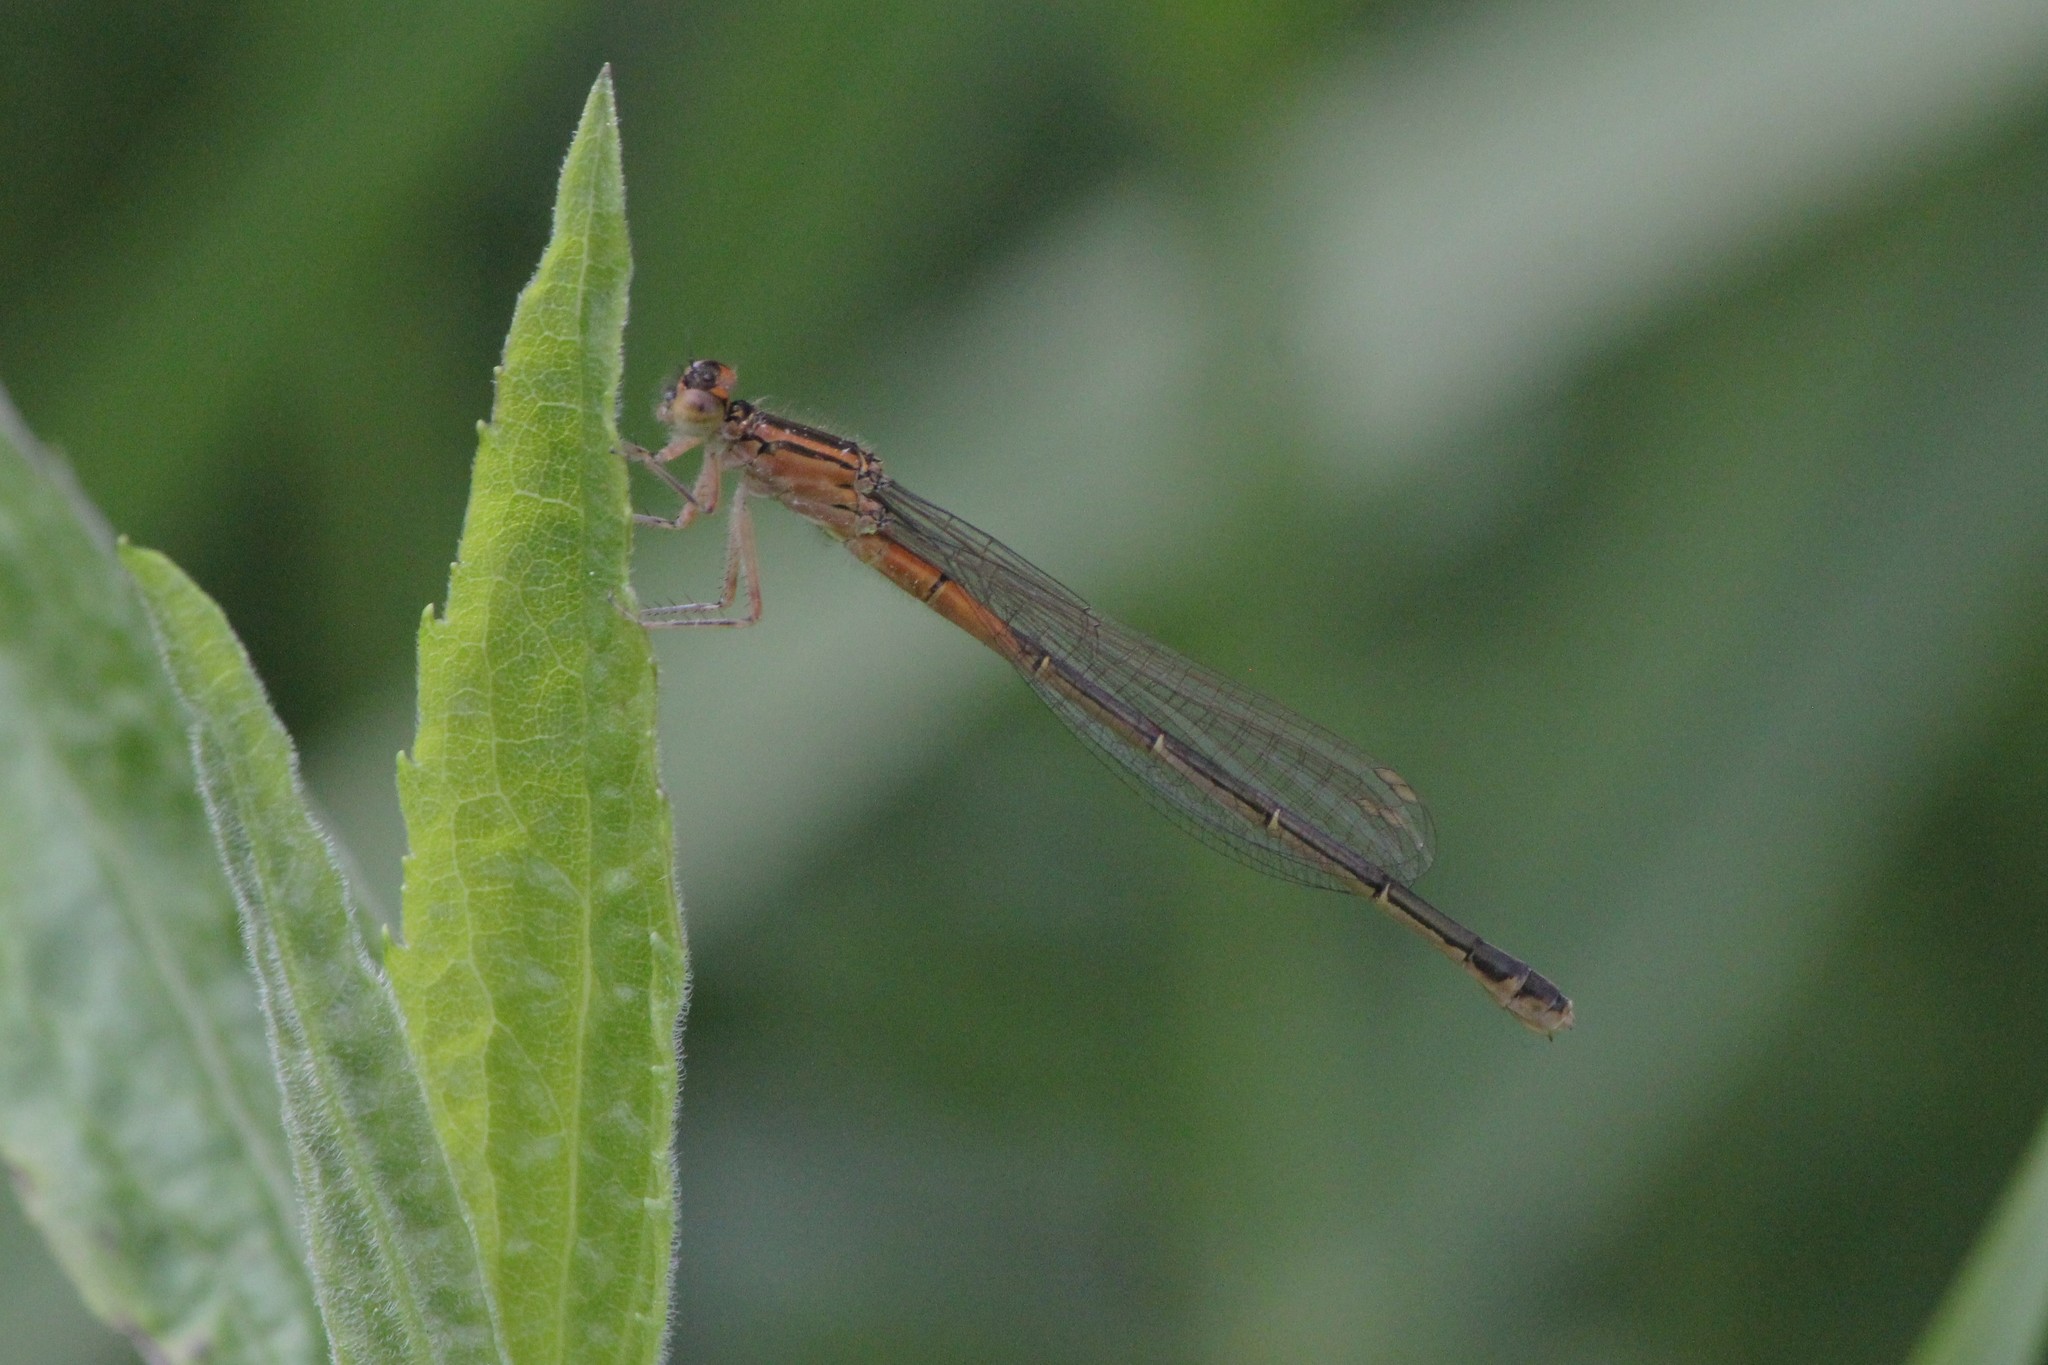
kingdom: Animalia
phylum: Arthropoda
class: Insecta
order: Odonata
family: Coenagrionidae
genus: Ischnura
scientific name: Ischnura verticalis
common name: Eastern forktail
